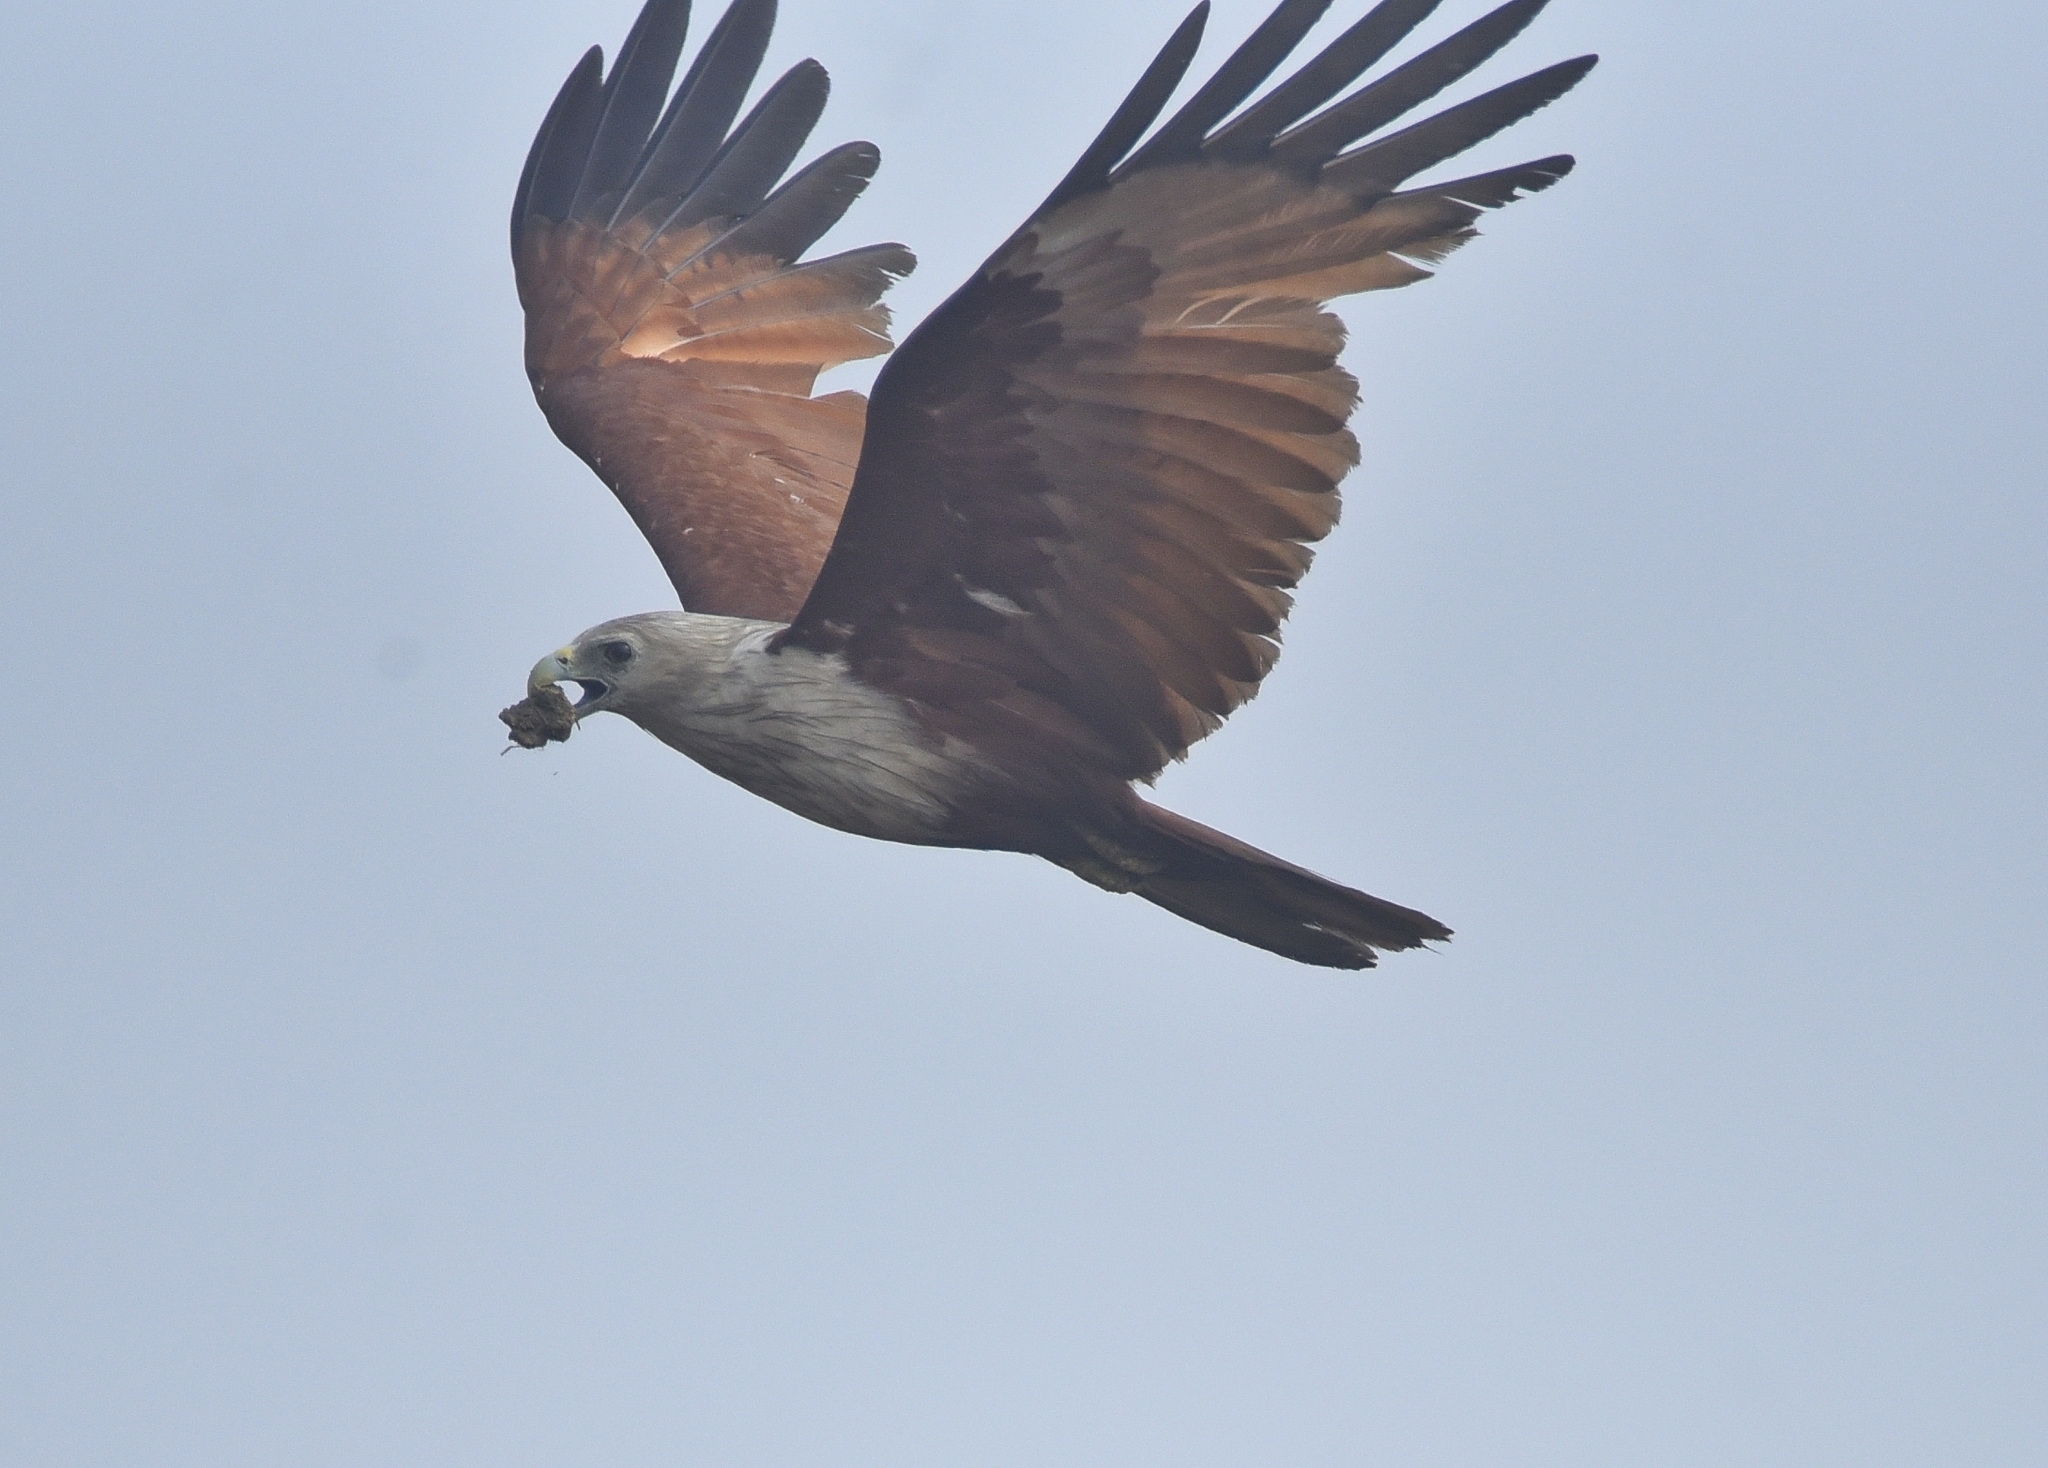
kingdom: Animalia
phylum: Chordata
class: Aves
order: Accipitriformes
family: Accipitridae
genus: Haliastur
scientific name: Haliastur indus
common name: Brahminy kite
